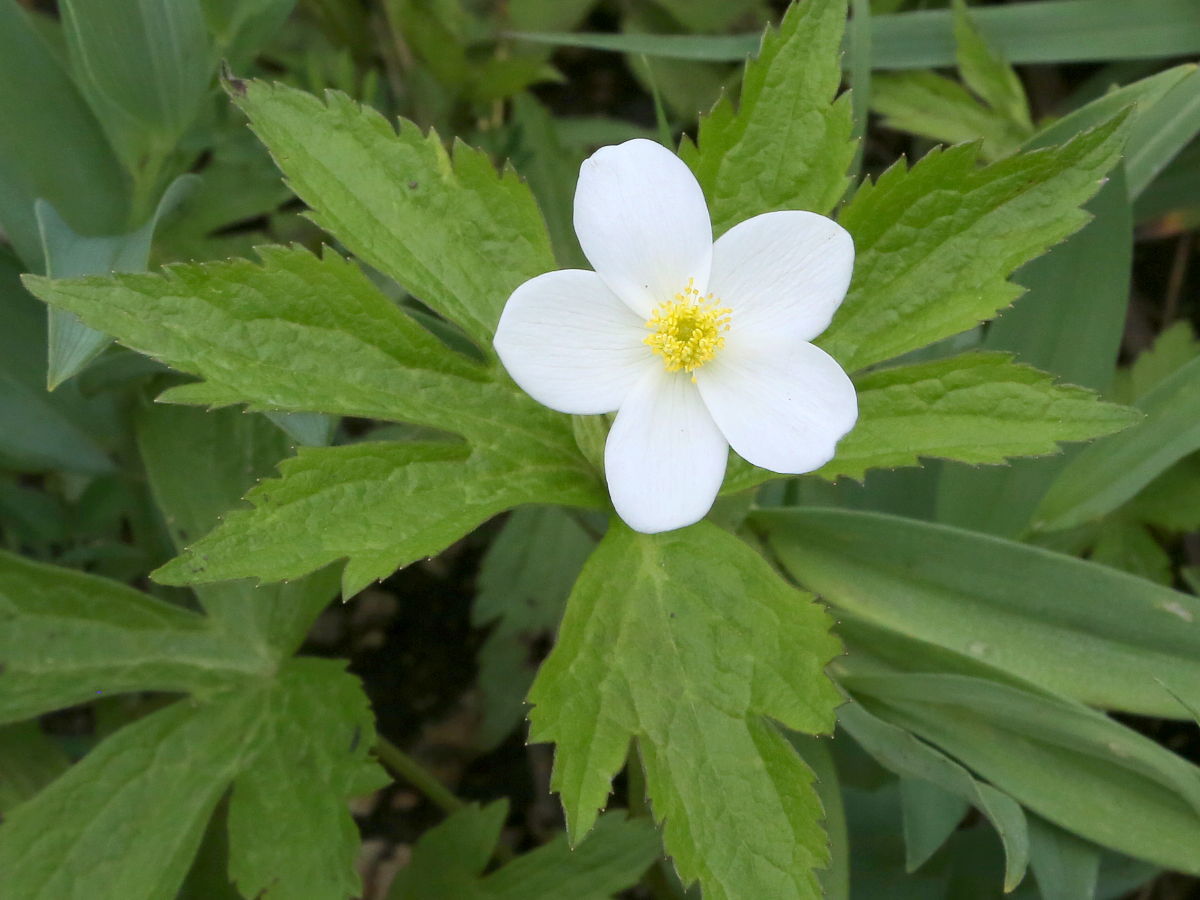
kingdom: Plantae
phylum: Tracheophyta
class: Magnoliopsida
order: Ranunculales
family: Ranunculaceae
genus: Anemonastrum
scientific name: Anemonastrum canadense
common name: Canada anemone
